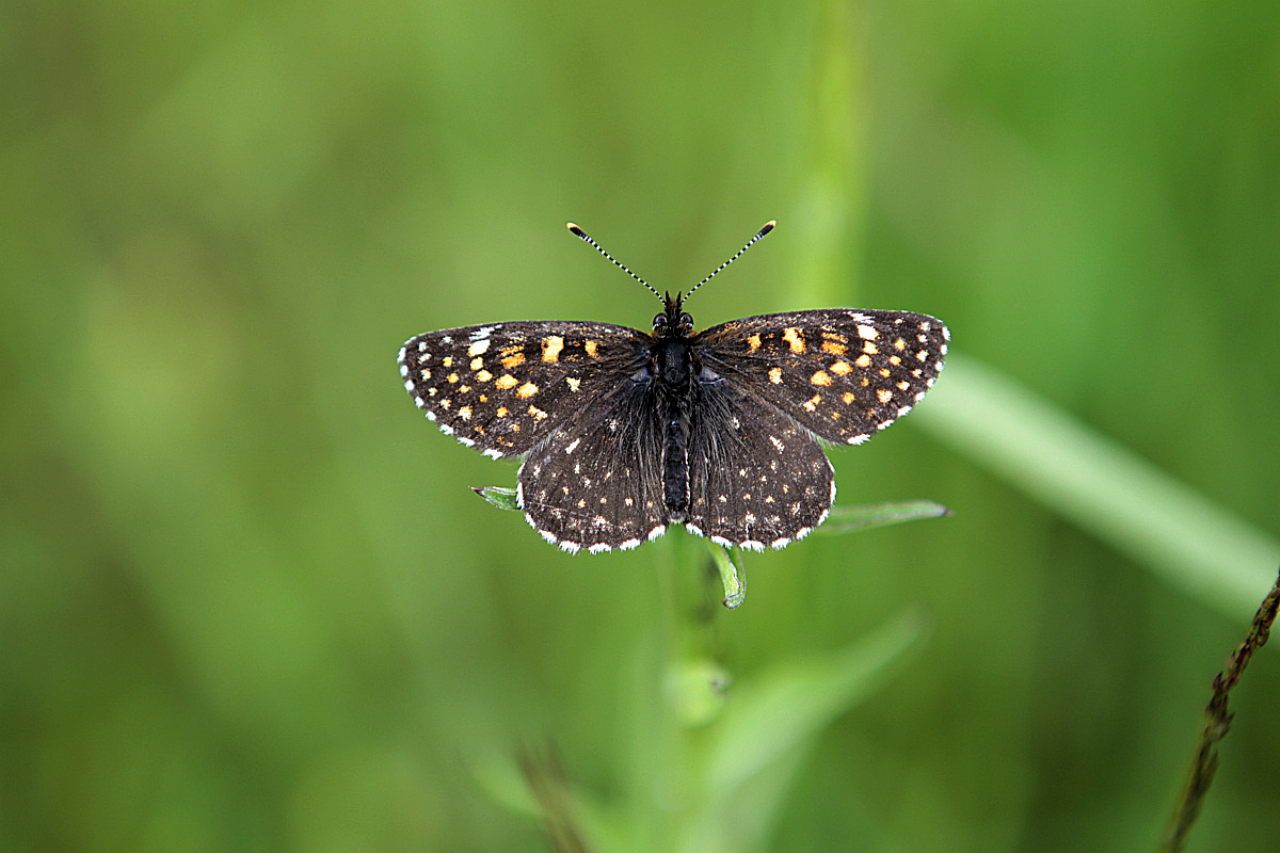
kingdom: Animalia
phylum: Arthropoda
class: Insecta
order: Lepidoptera
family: Nymphalidae
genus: Melitaea
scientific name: Melitaea diamina
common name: False heath fritillary
